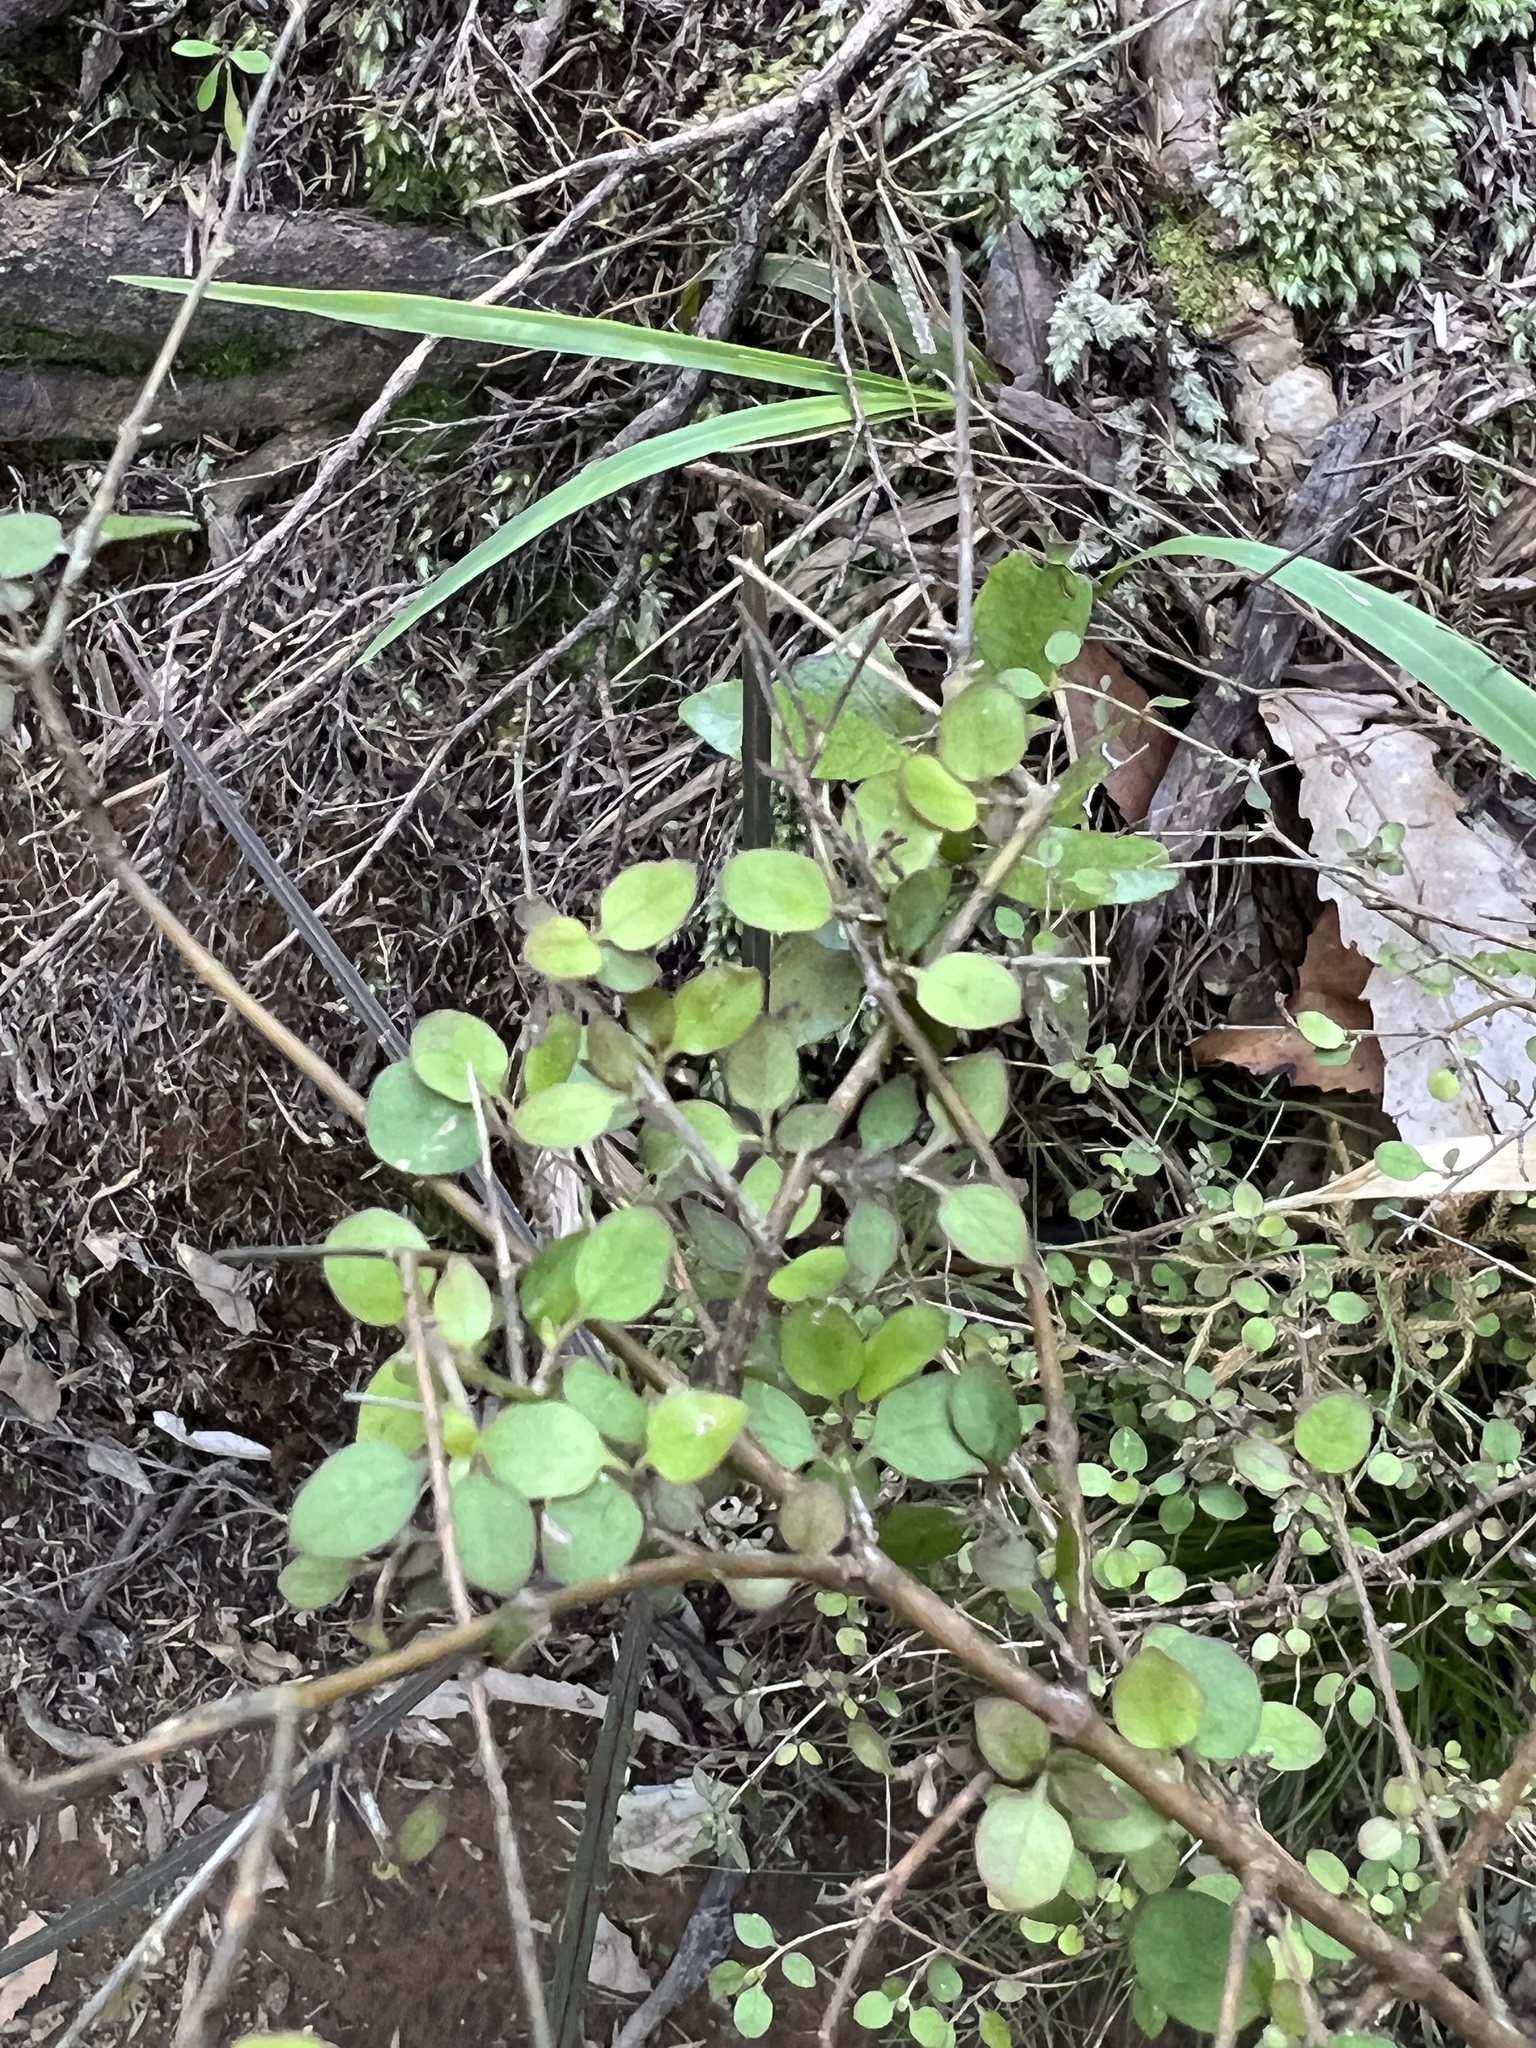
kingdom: Plantae
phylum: Tracheophyta
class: Magnoliopsida
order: Gentianales
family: Rubiaceae
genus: Coprosma
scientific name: Coprosma rhamnoides
